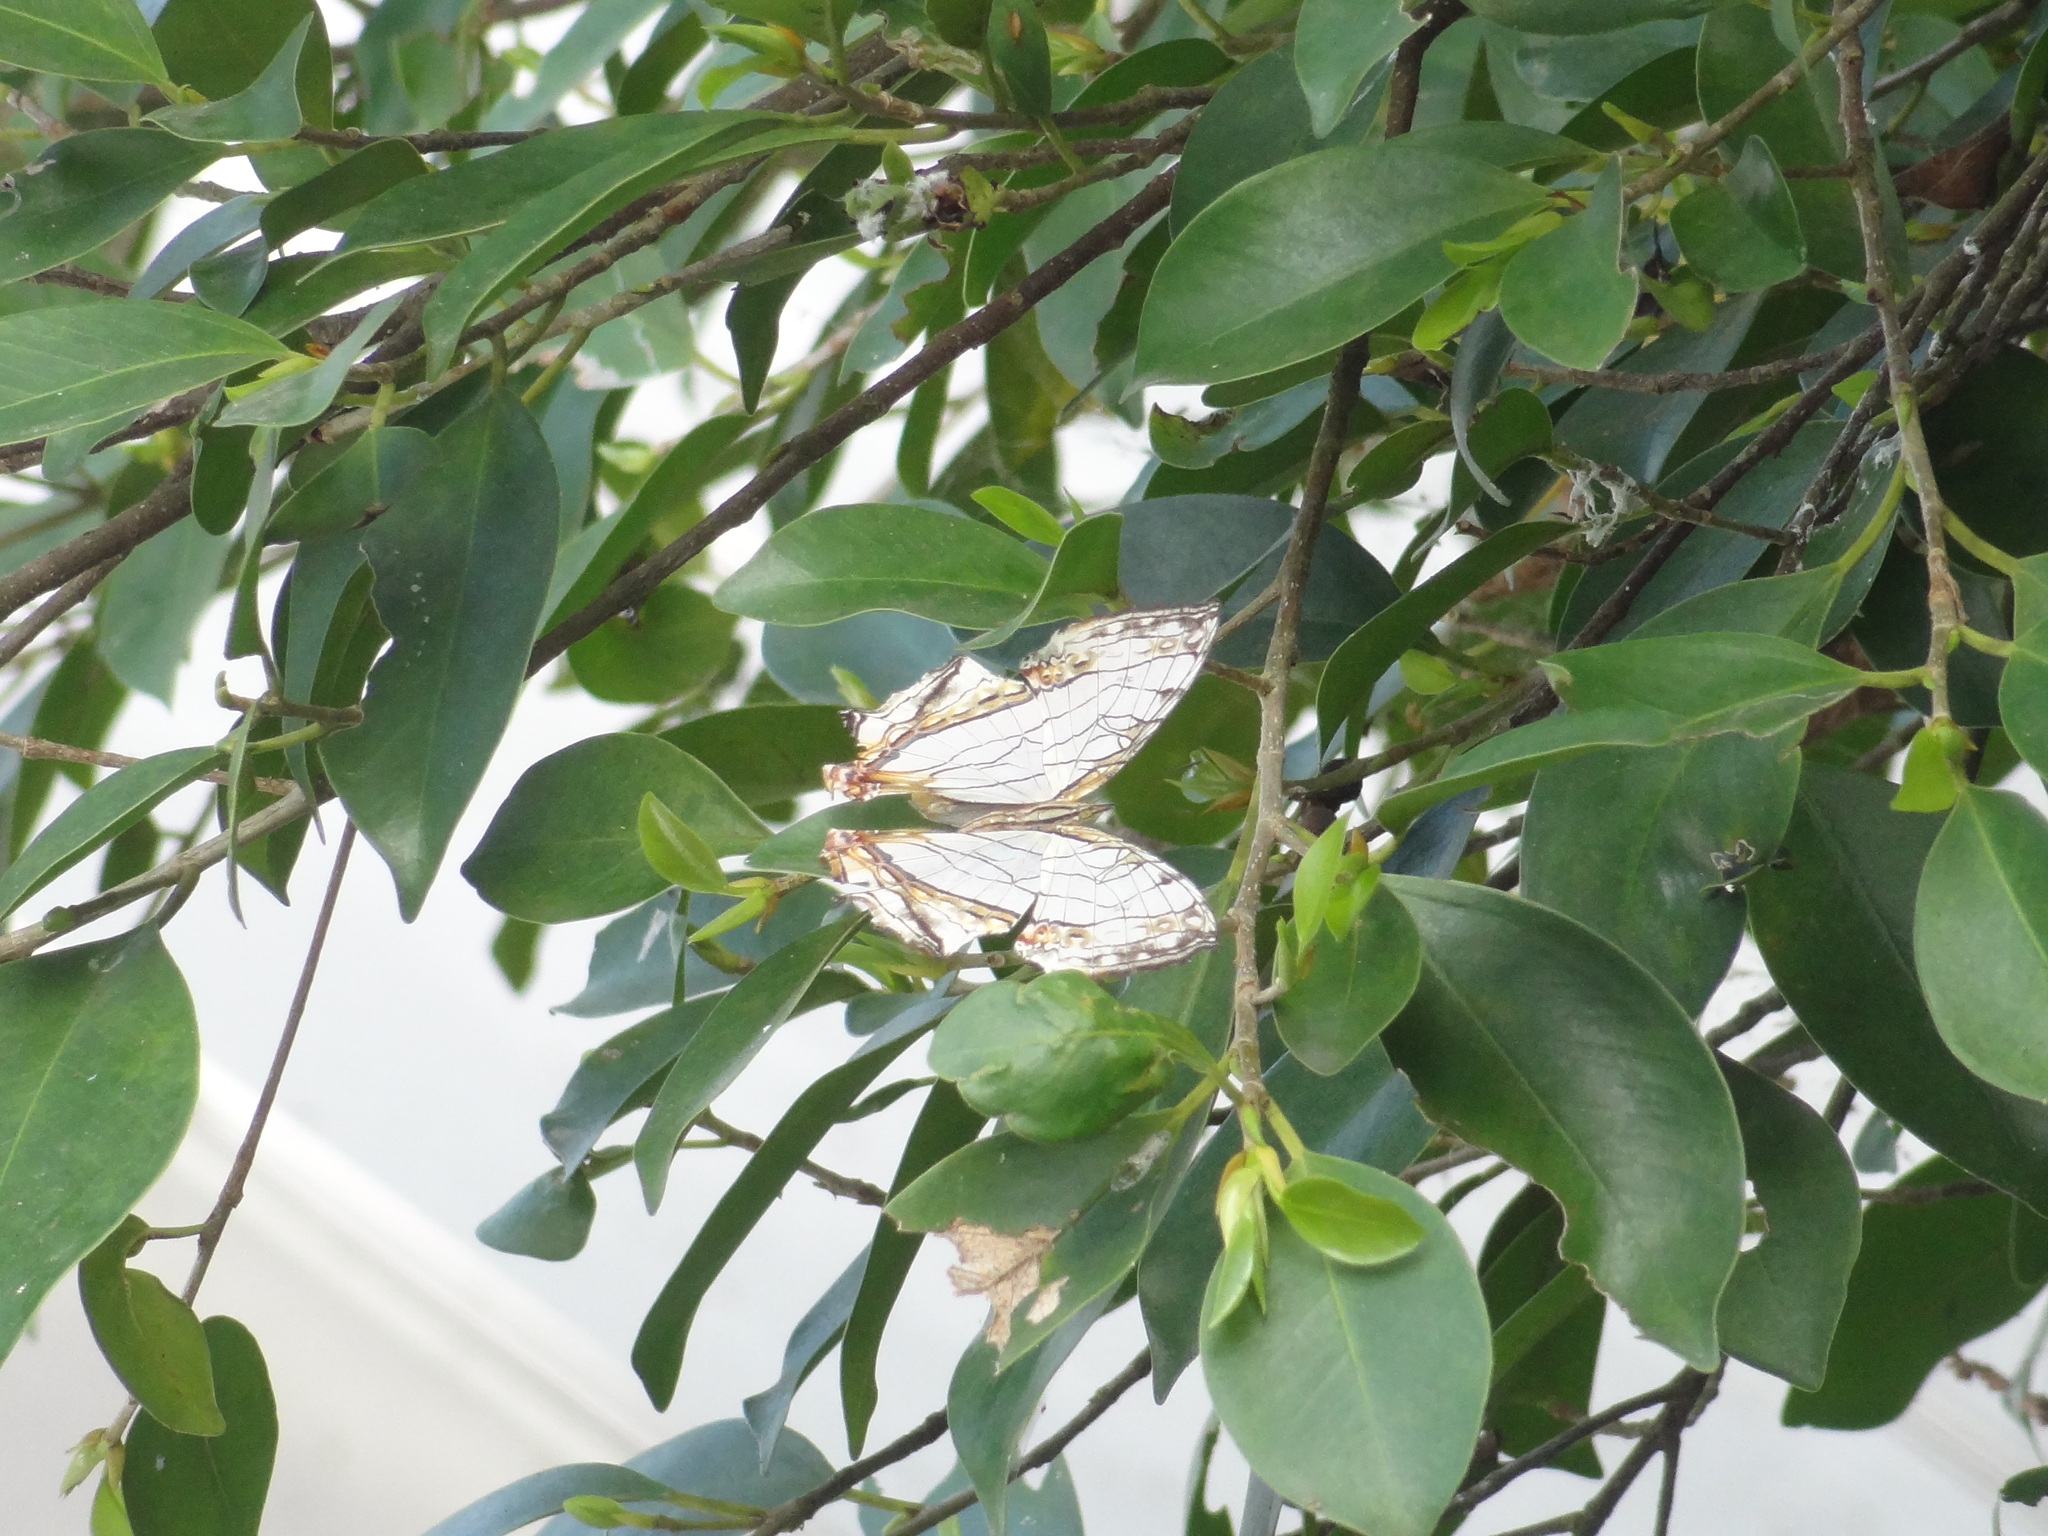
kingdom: Animalia
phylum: Arthropoda
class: Insecta
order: Lepidoptera
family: Nymphalidae
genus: Cyrestis
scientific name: Cyrestis thyodamas
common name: Common mapwing
